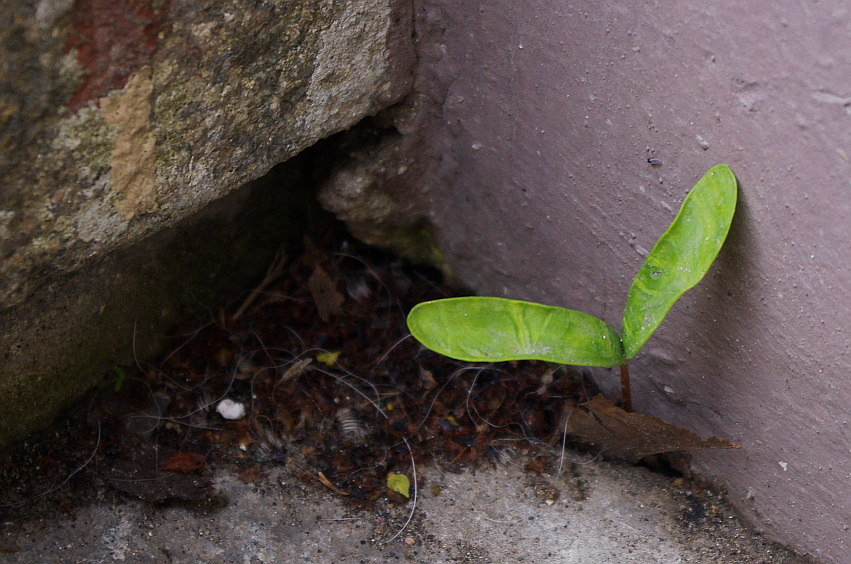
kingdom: Plantae
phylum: Tracheophyta
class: Magnoliopsida
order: Sapindales
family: Sapindaceae
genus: Acer
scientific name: Acer platanoides
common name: Norway maple
